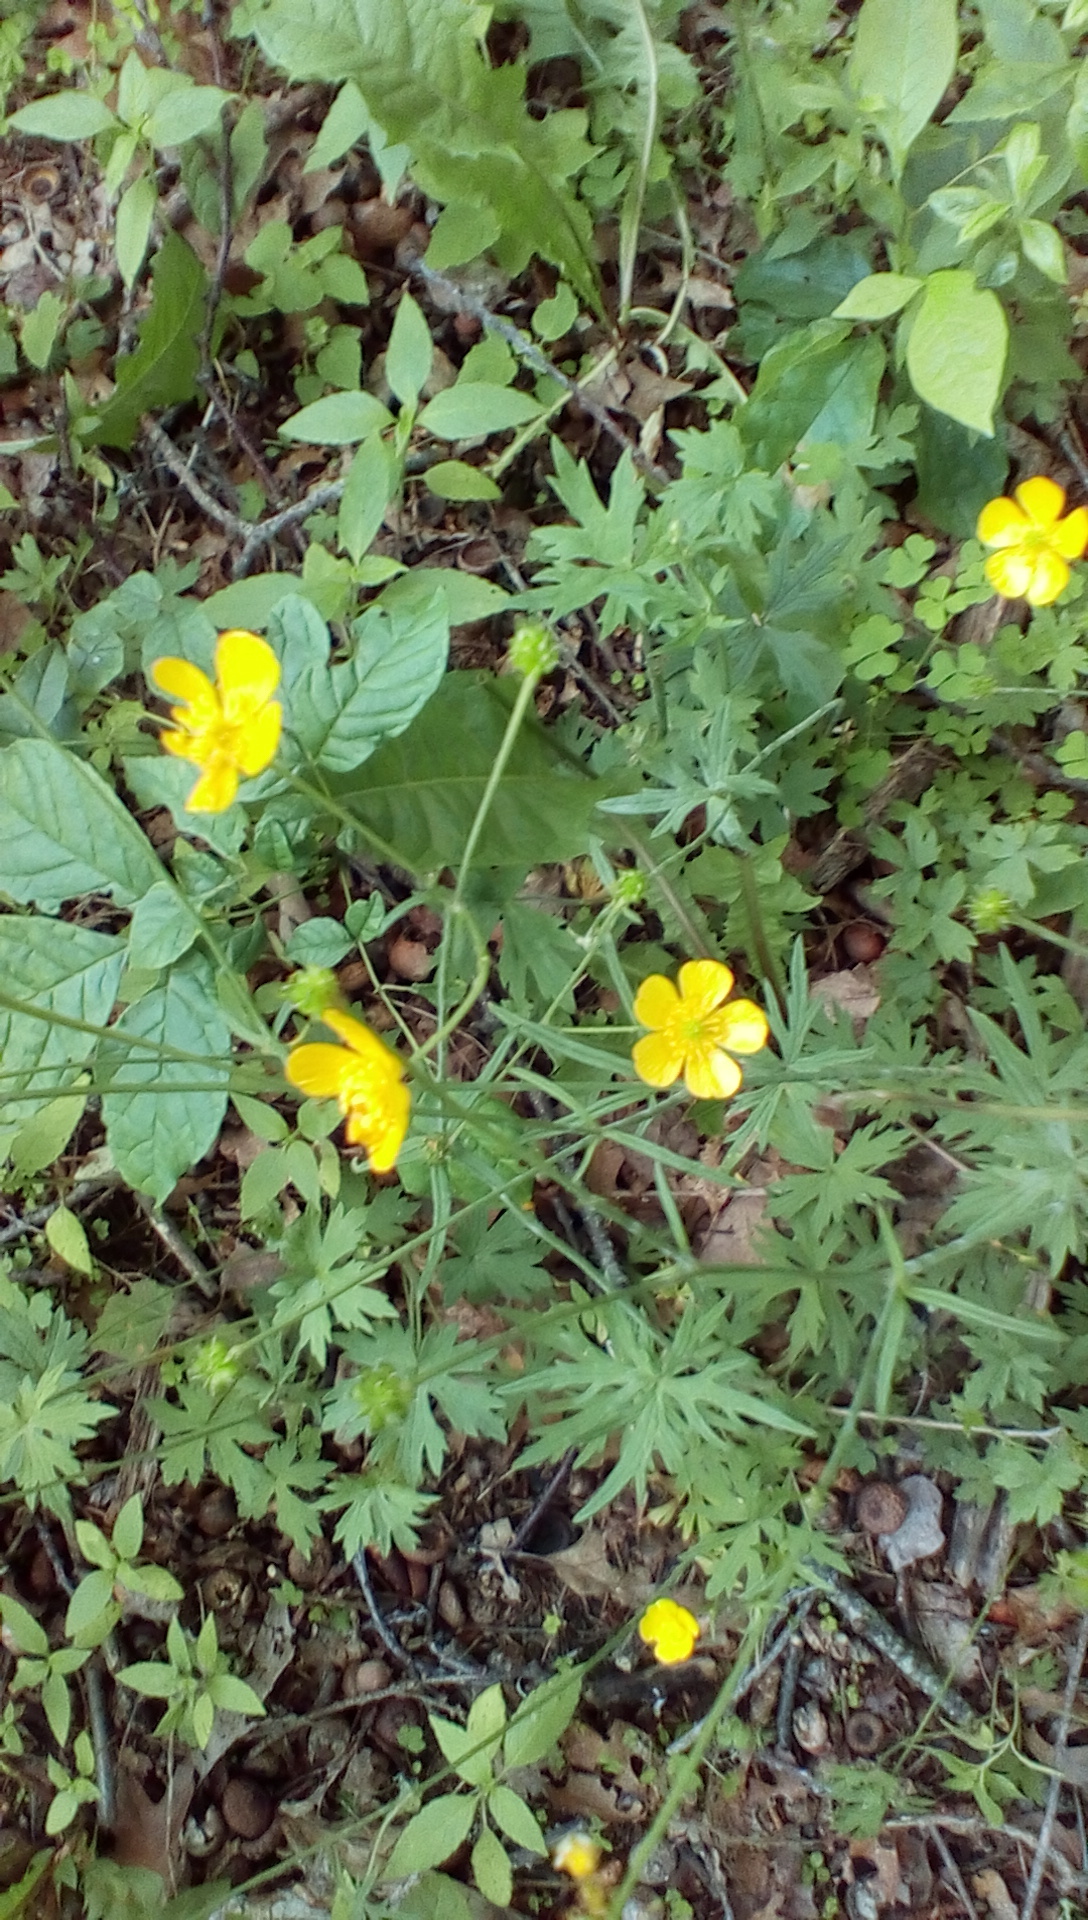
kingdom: Plantae
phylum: Tracheophyta
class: Magnoliopsida
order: Ranunculales
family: Ranunculaceae
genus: Ranunculus
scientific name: Ranunculus acris
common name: Meadow buttercup
